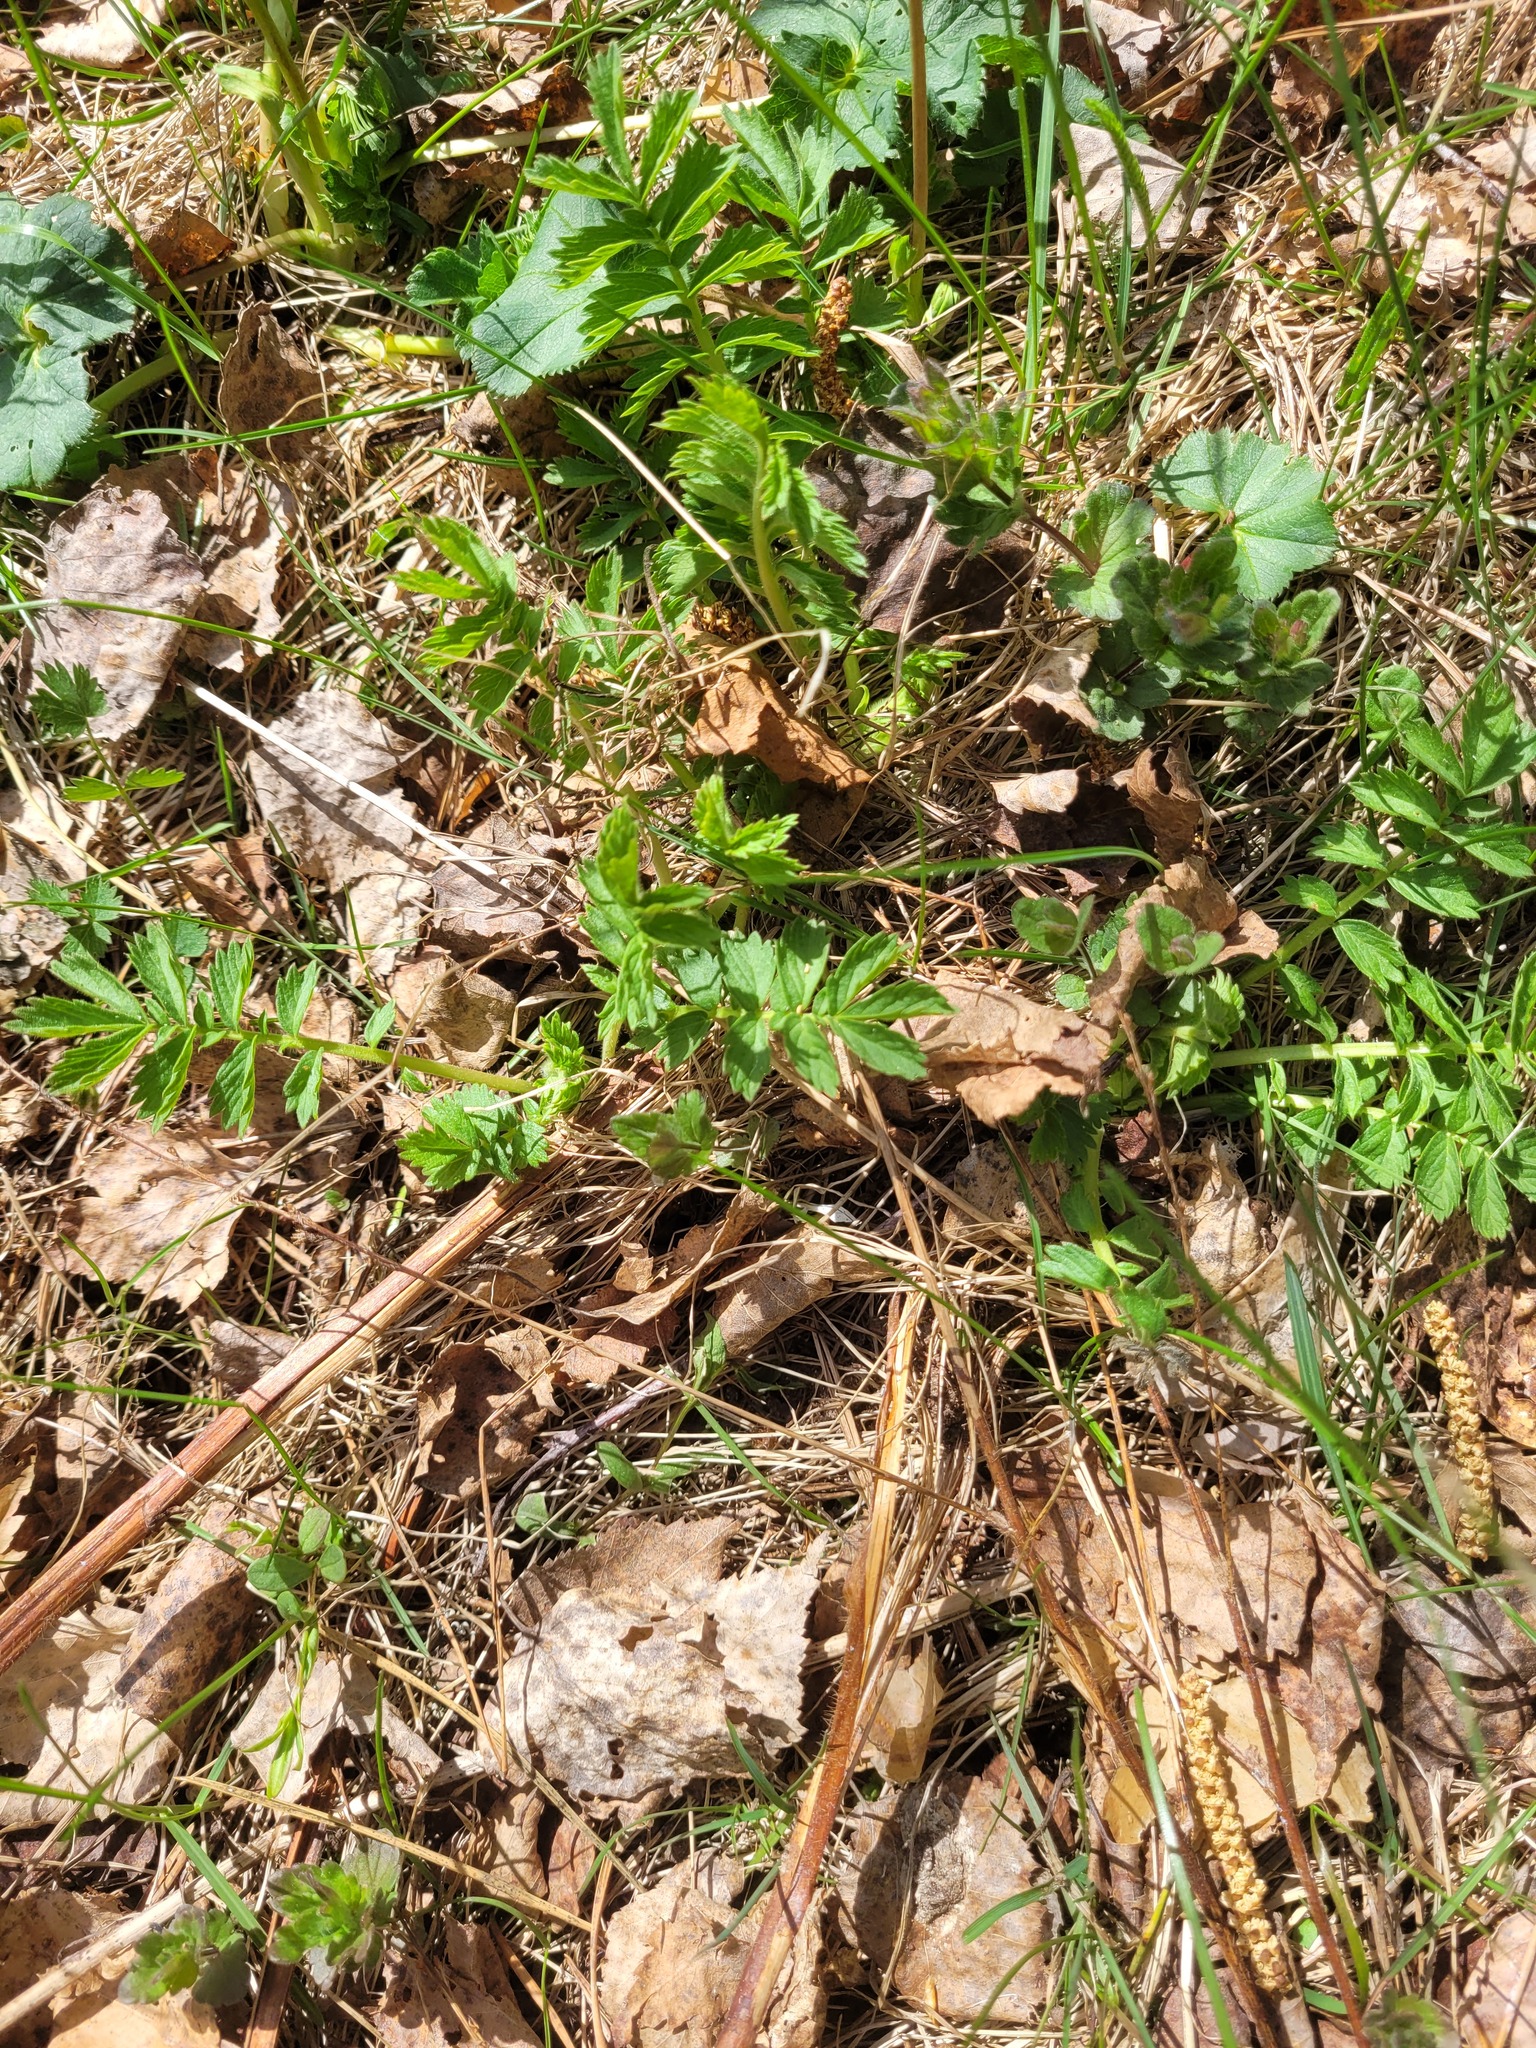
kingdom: Plantae
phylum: Tracheophyta
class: Magnoliopsida
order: Rosales
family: Rosaceae
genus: Agrimonia
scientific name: Agrimonia pilosa
